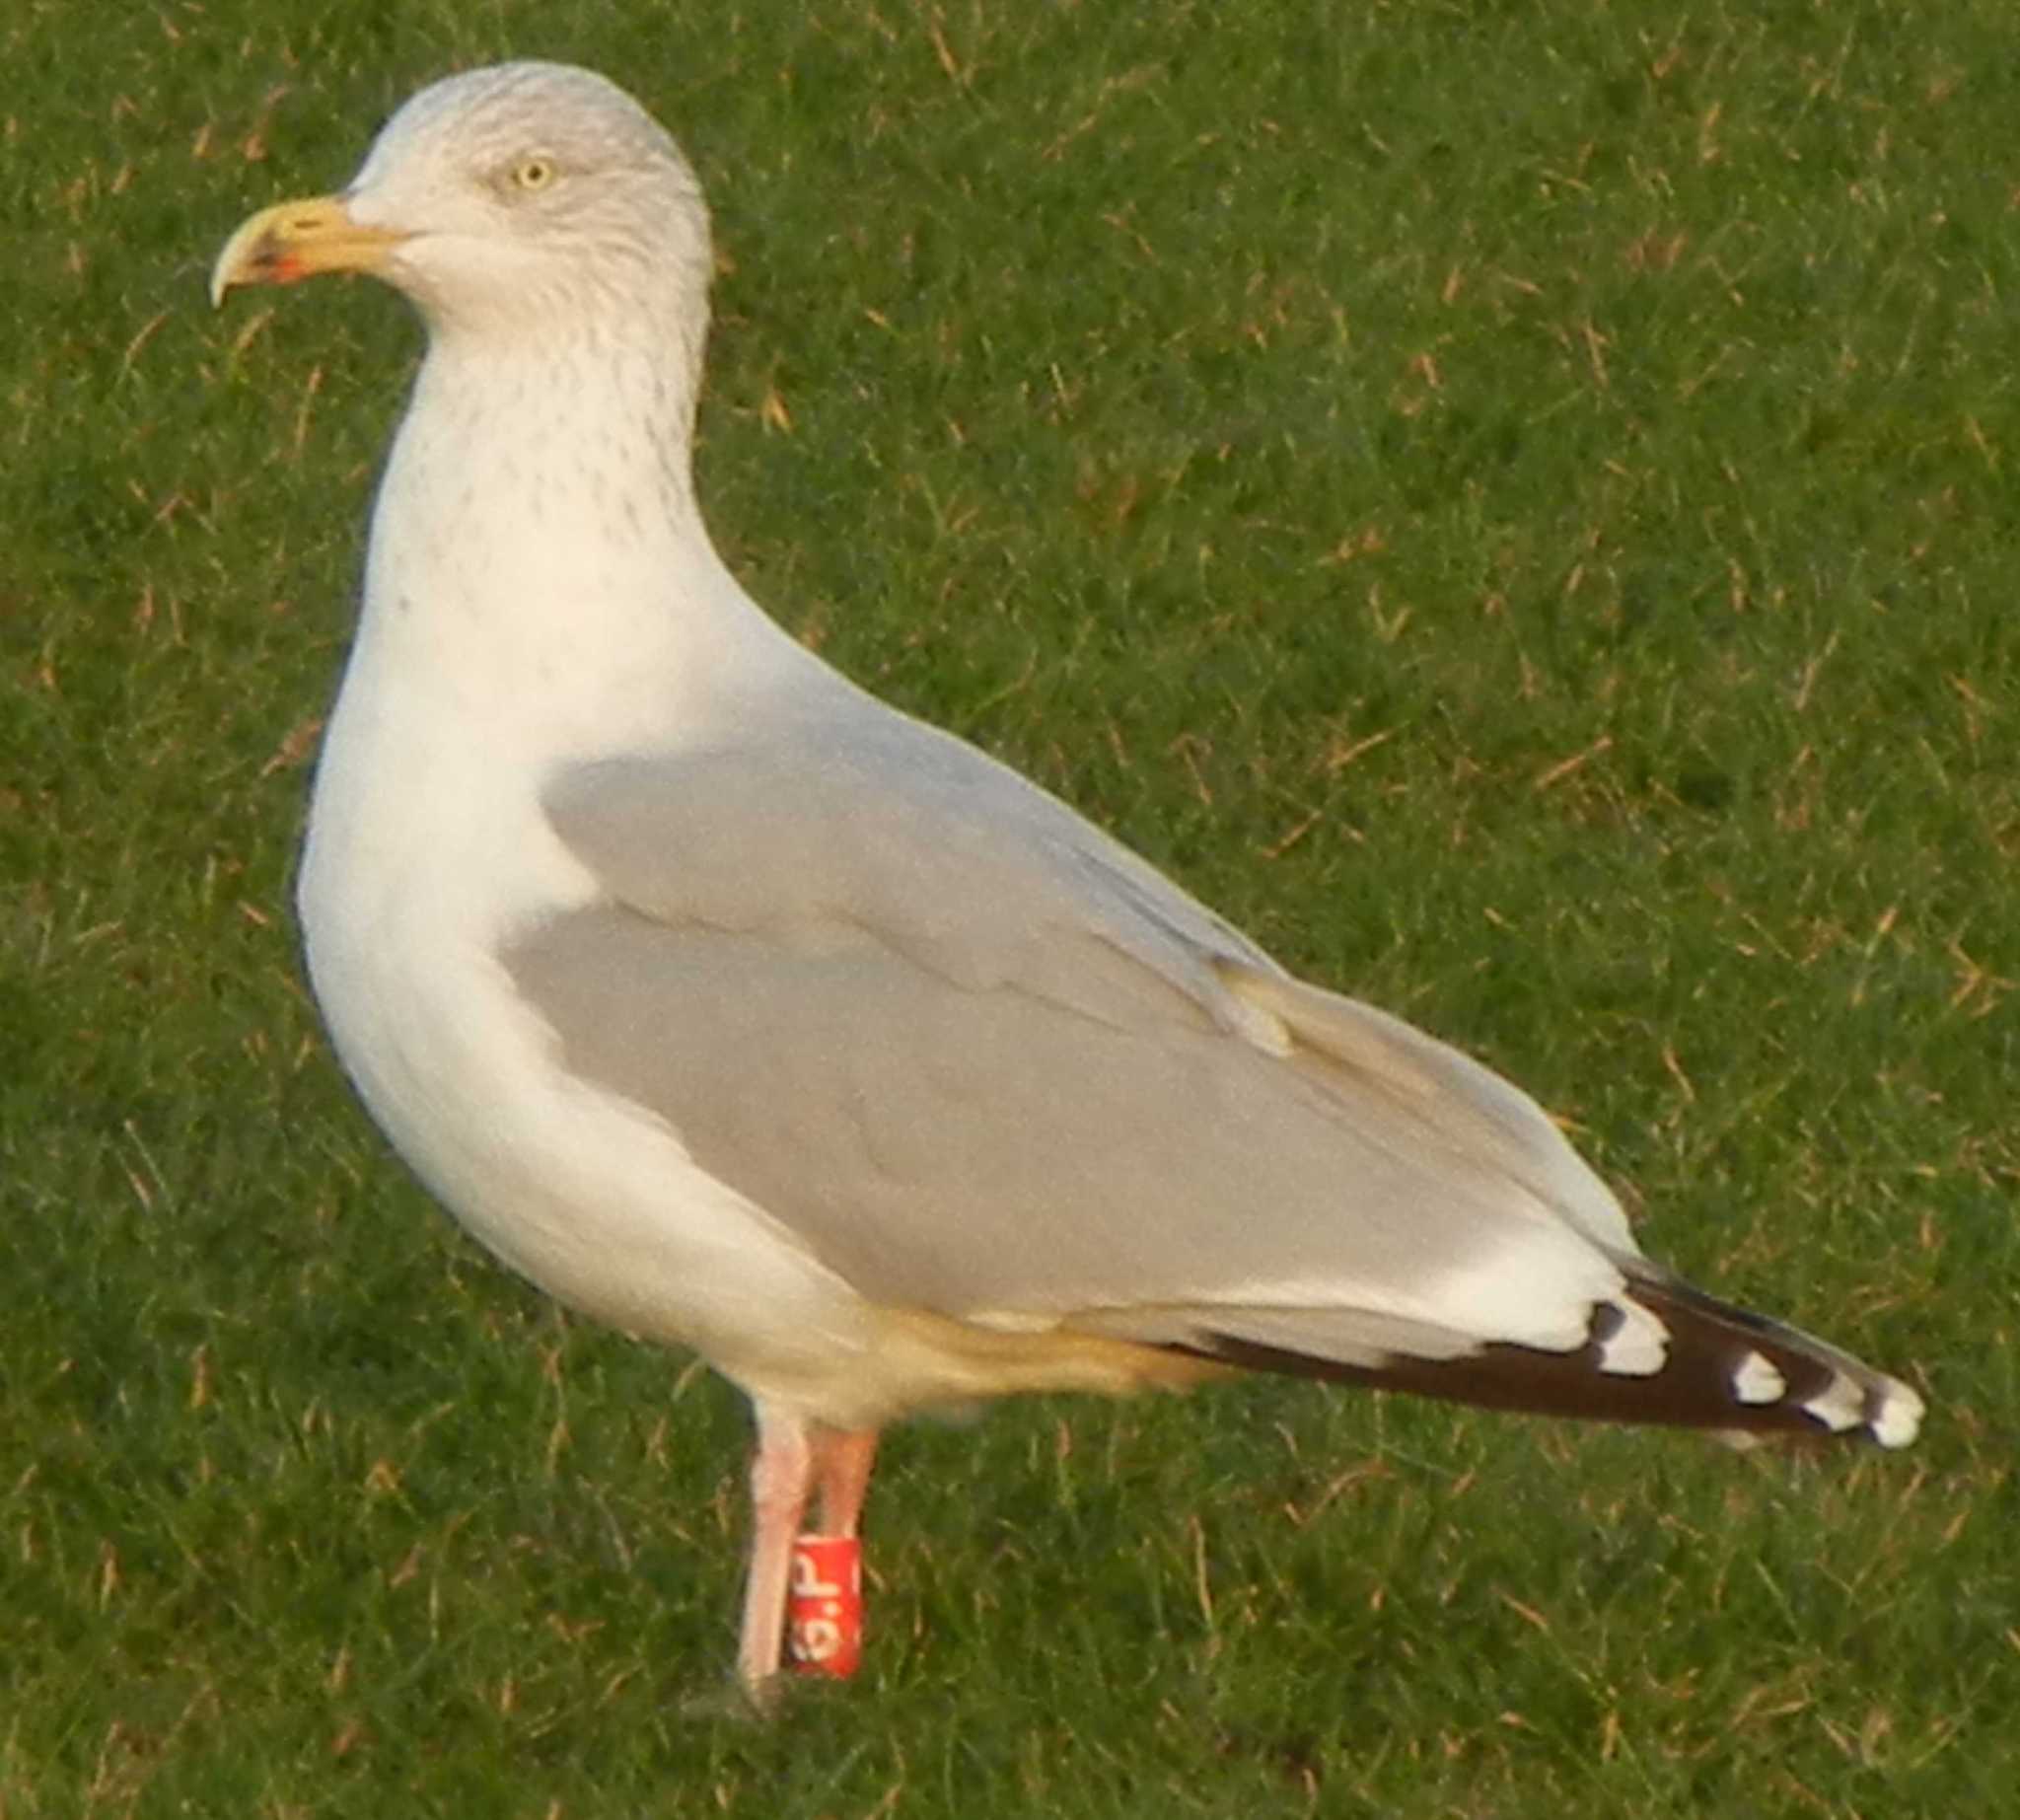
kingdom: Animalia
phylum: Chordata
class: Aves
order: Charadriiformes
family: Laridae
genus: Larus
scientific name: Larus argentatus
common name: Herring gull
